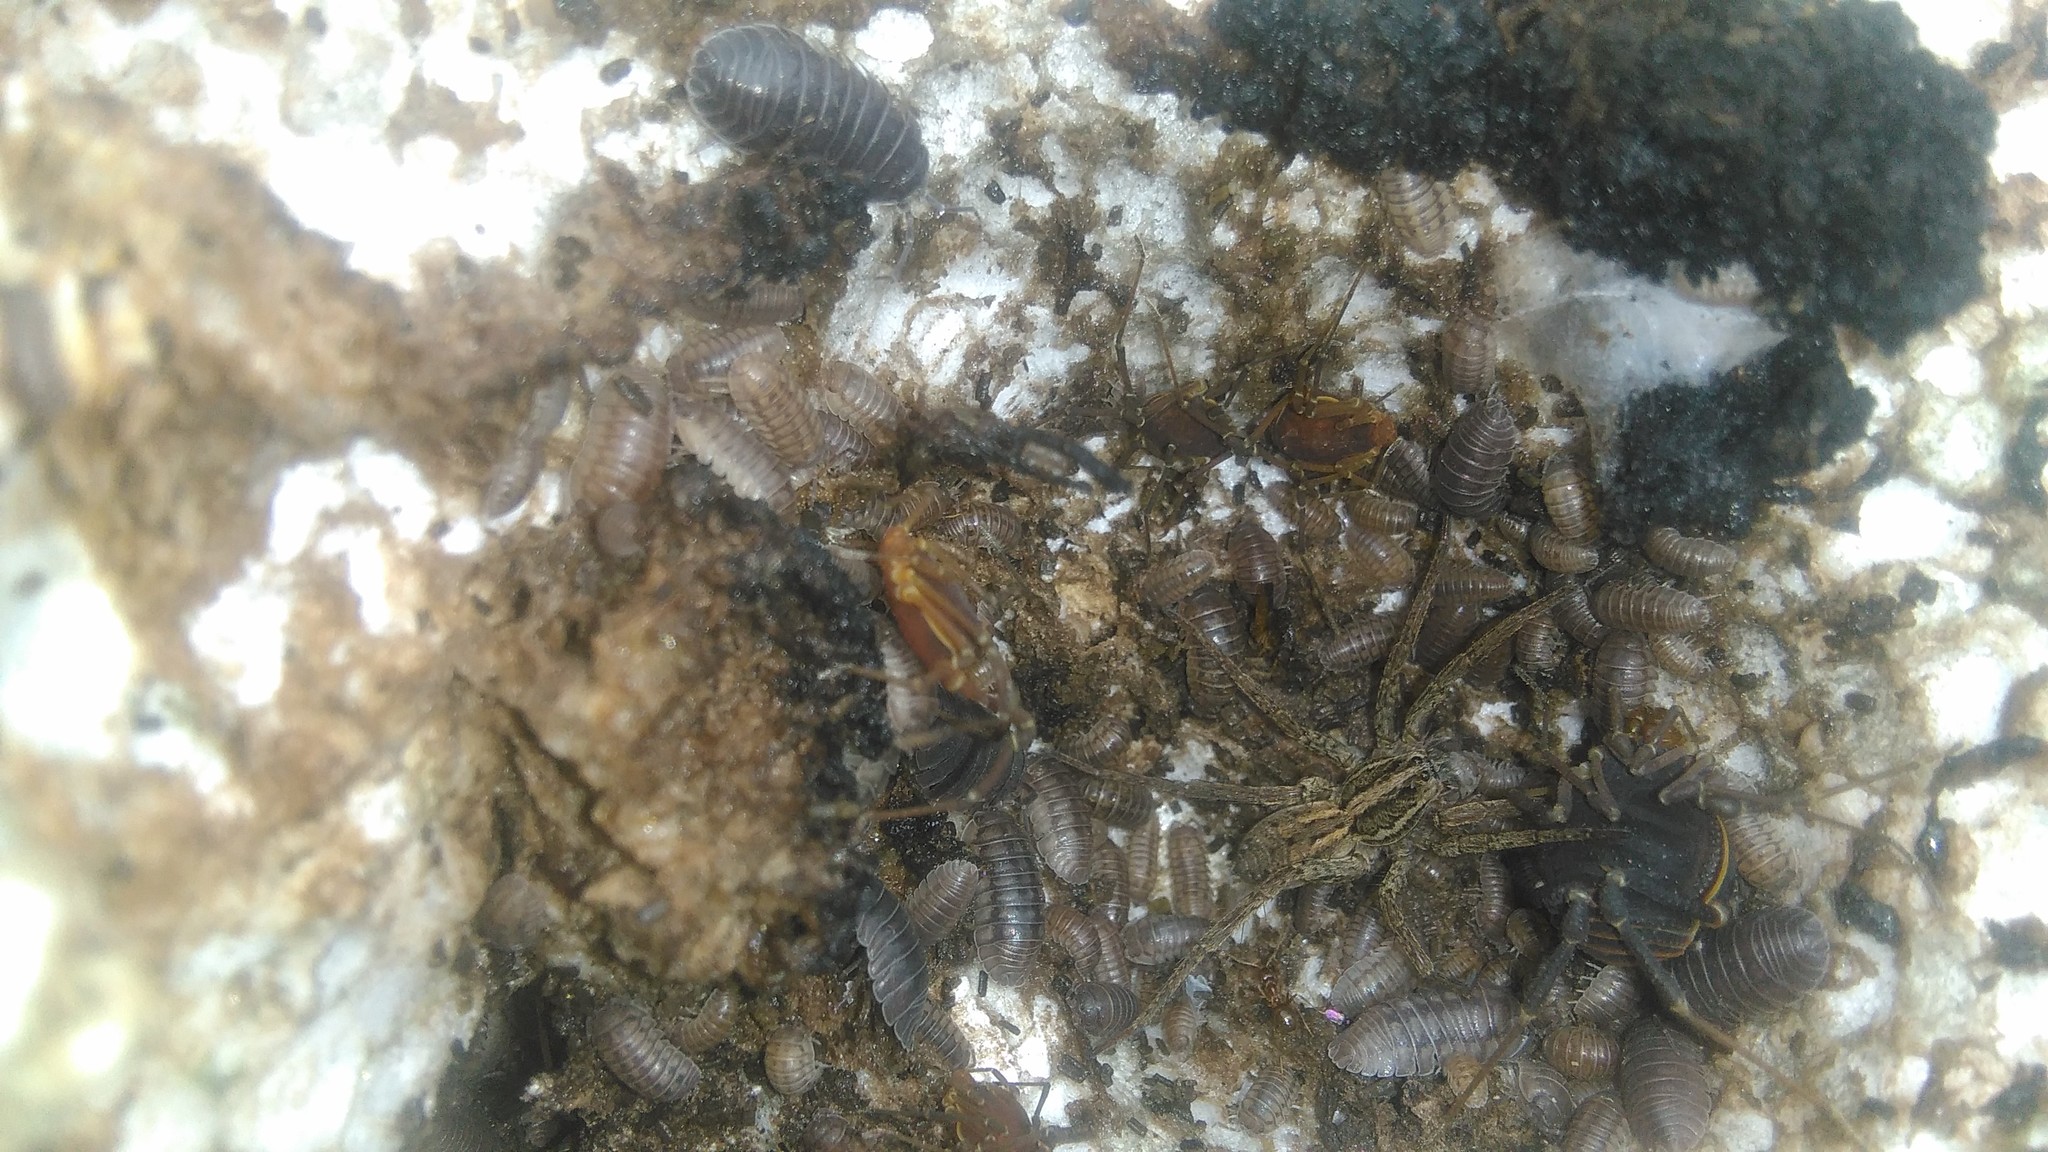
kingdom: Animalia
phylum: Arthropoda
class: Arachnida
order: Araneae
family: Lycosidae
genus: Alopecosa
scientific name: Alopecosa moesta
